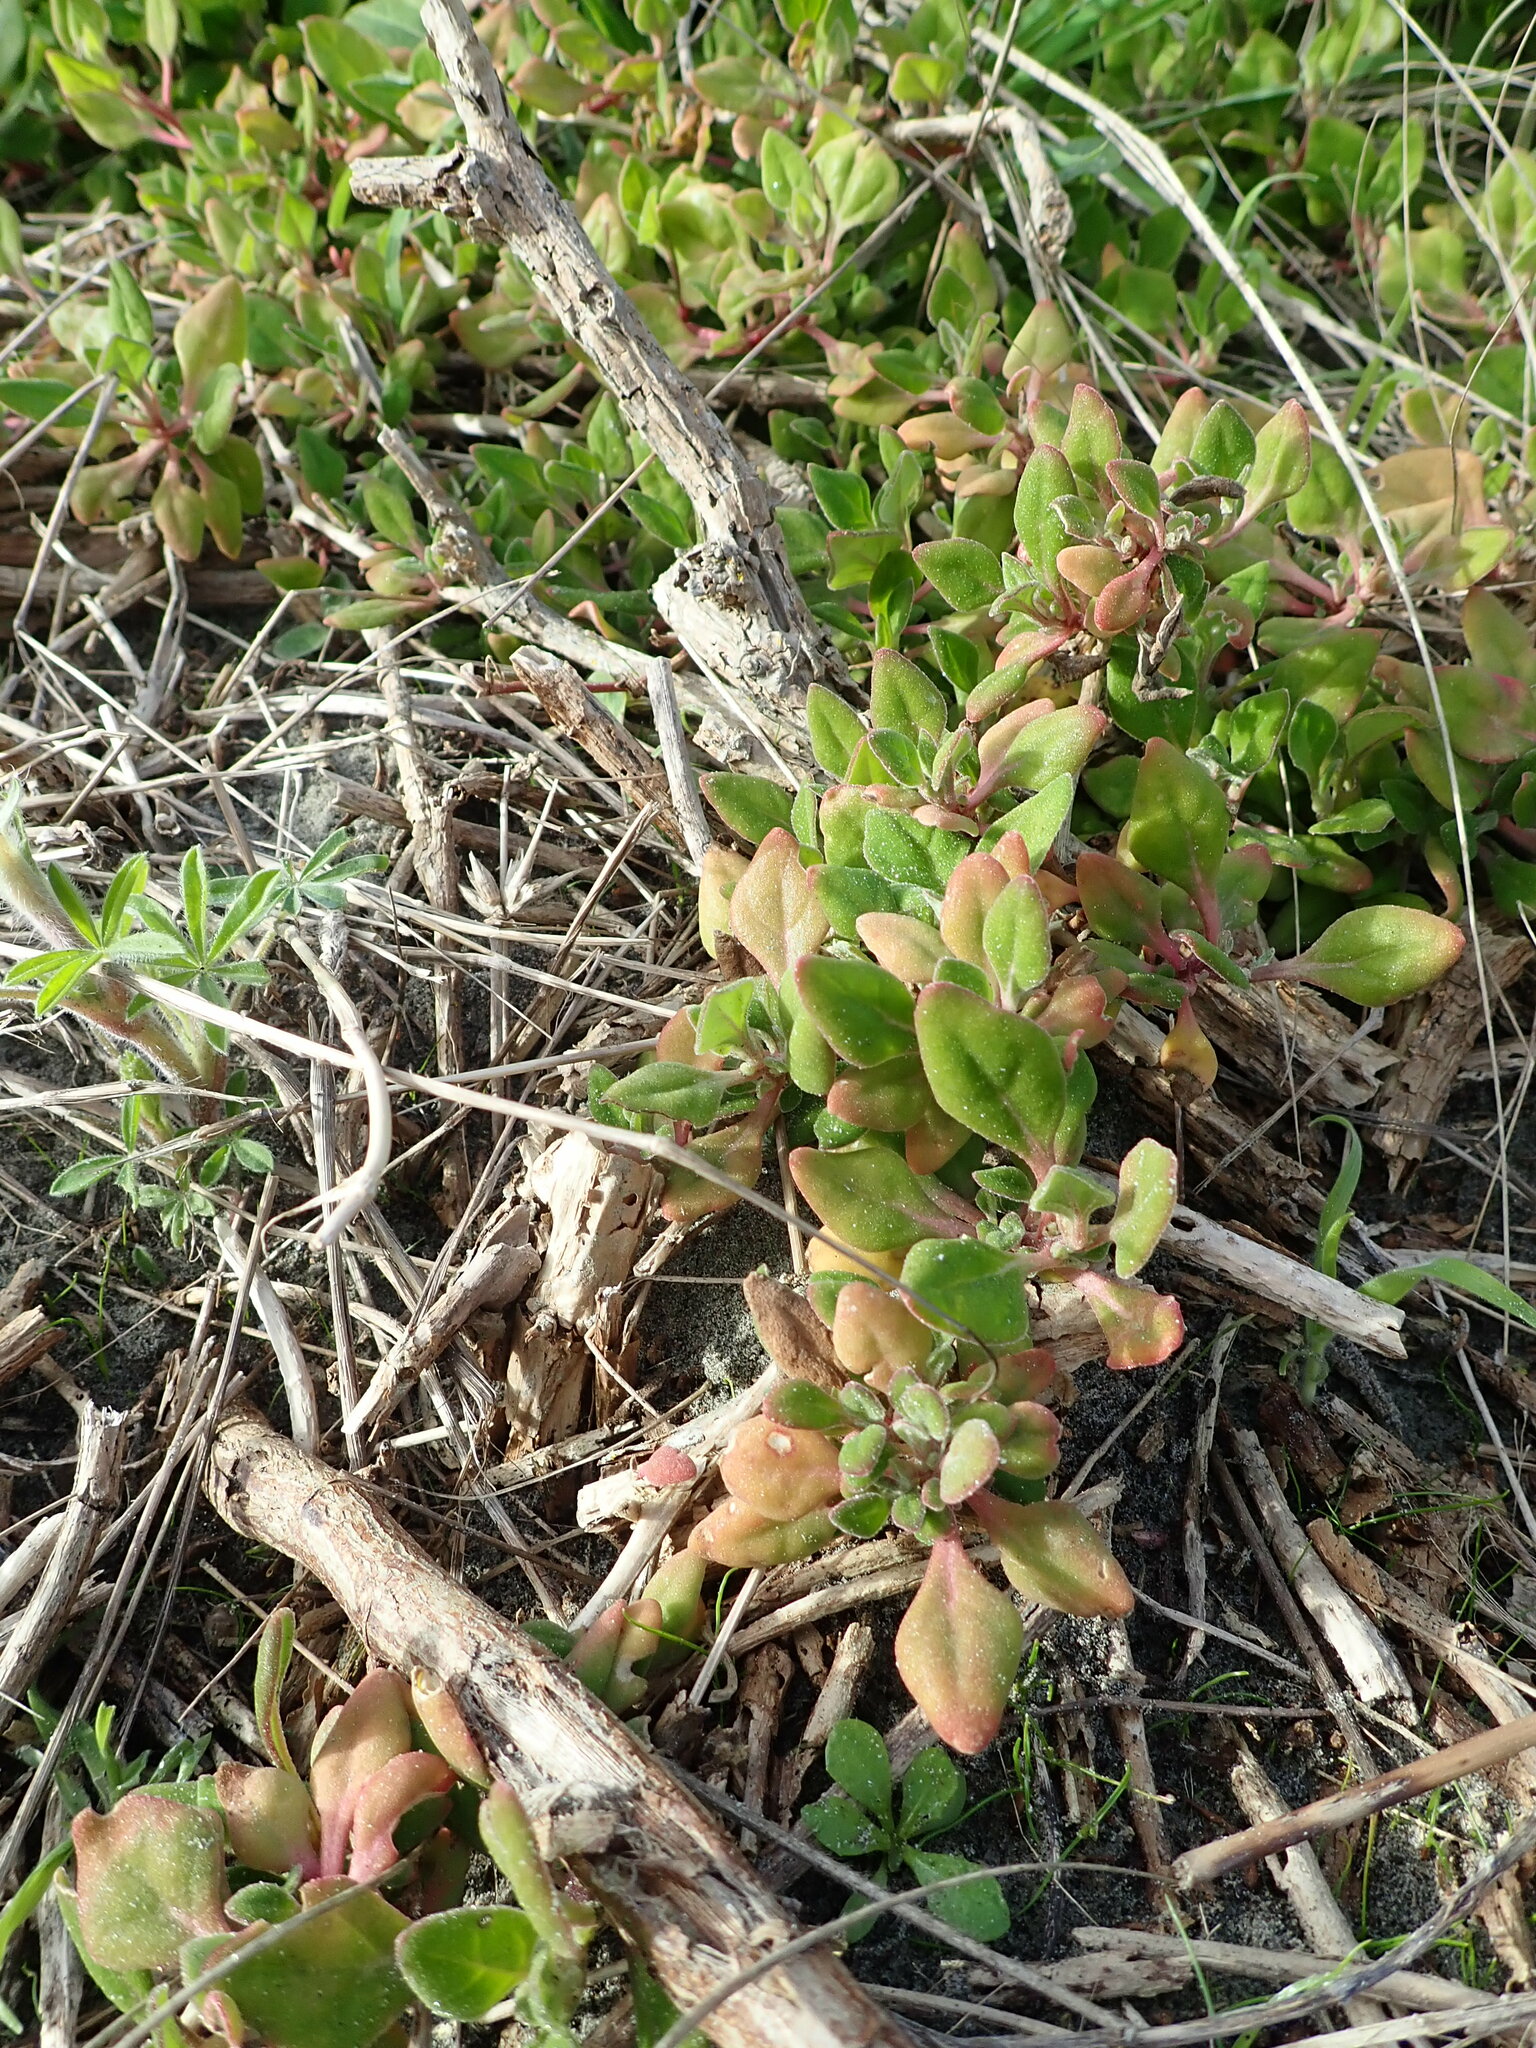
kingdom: Plantae
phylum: Tracheophyta
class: Magnoliopsida
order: Caryophyllales
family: Aizoaceae
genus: Tetragonia
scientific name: Tetragonia implexicoma
